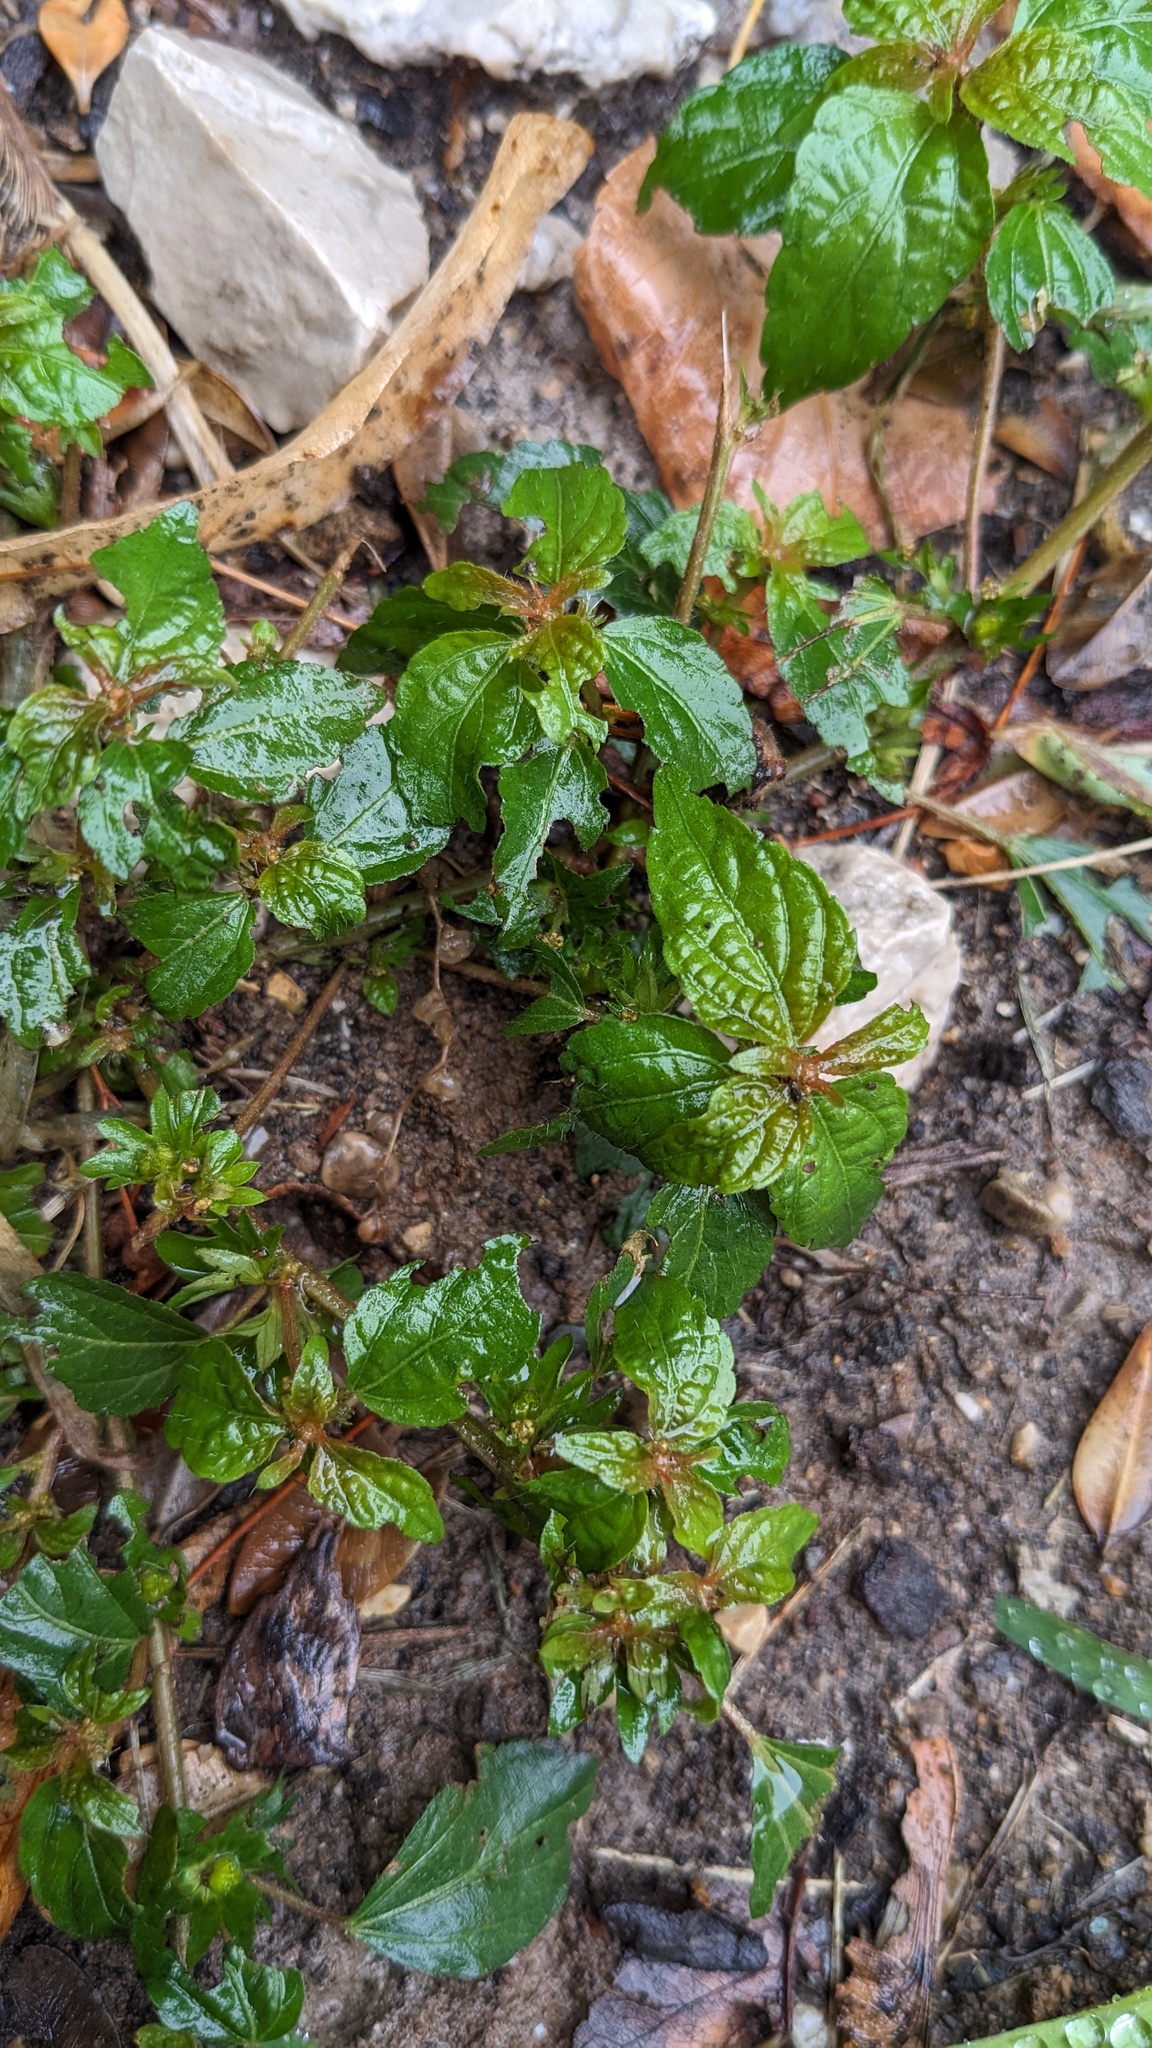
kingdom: Plantae
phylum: Tracheophyta
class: Magnoliopsida
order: Malpighiales
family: Euphorbiaceae
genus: Acalypha
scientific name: Acalypha rhomboidea
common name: Rhombic copperleaf
